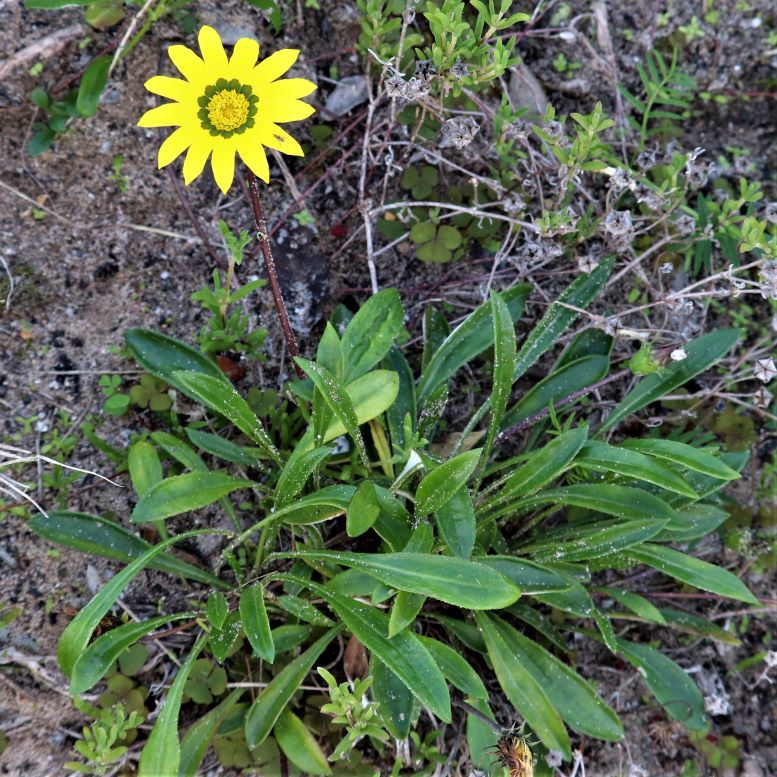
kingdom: Plantae
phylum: Tracheophyta
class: Magnoliopsida
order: Asterales
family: Asteraceae
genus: Gazania
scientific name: Gazania krebsiana
